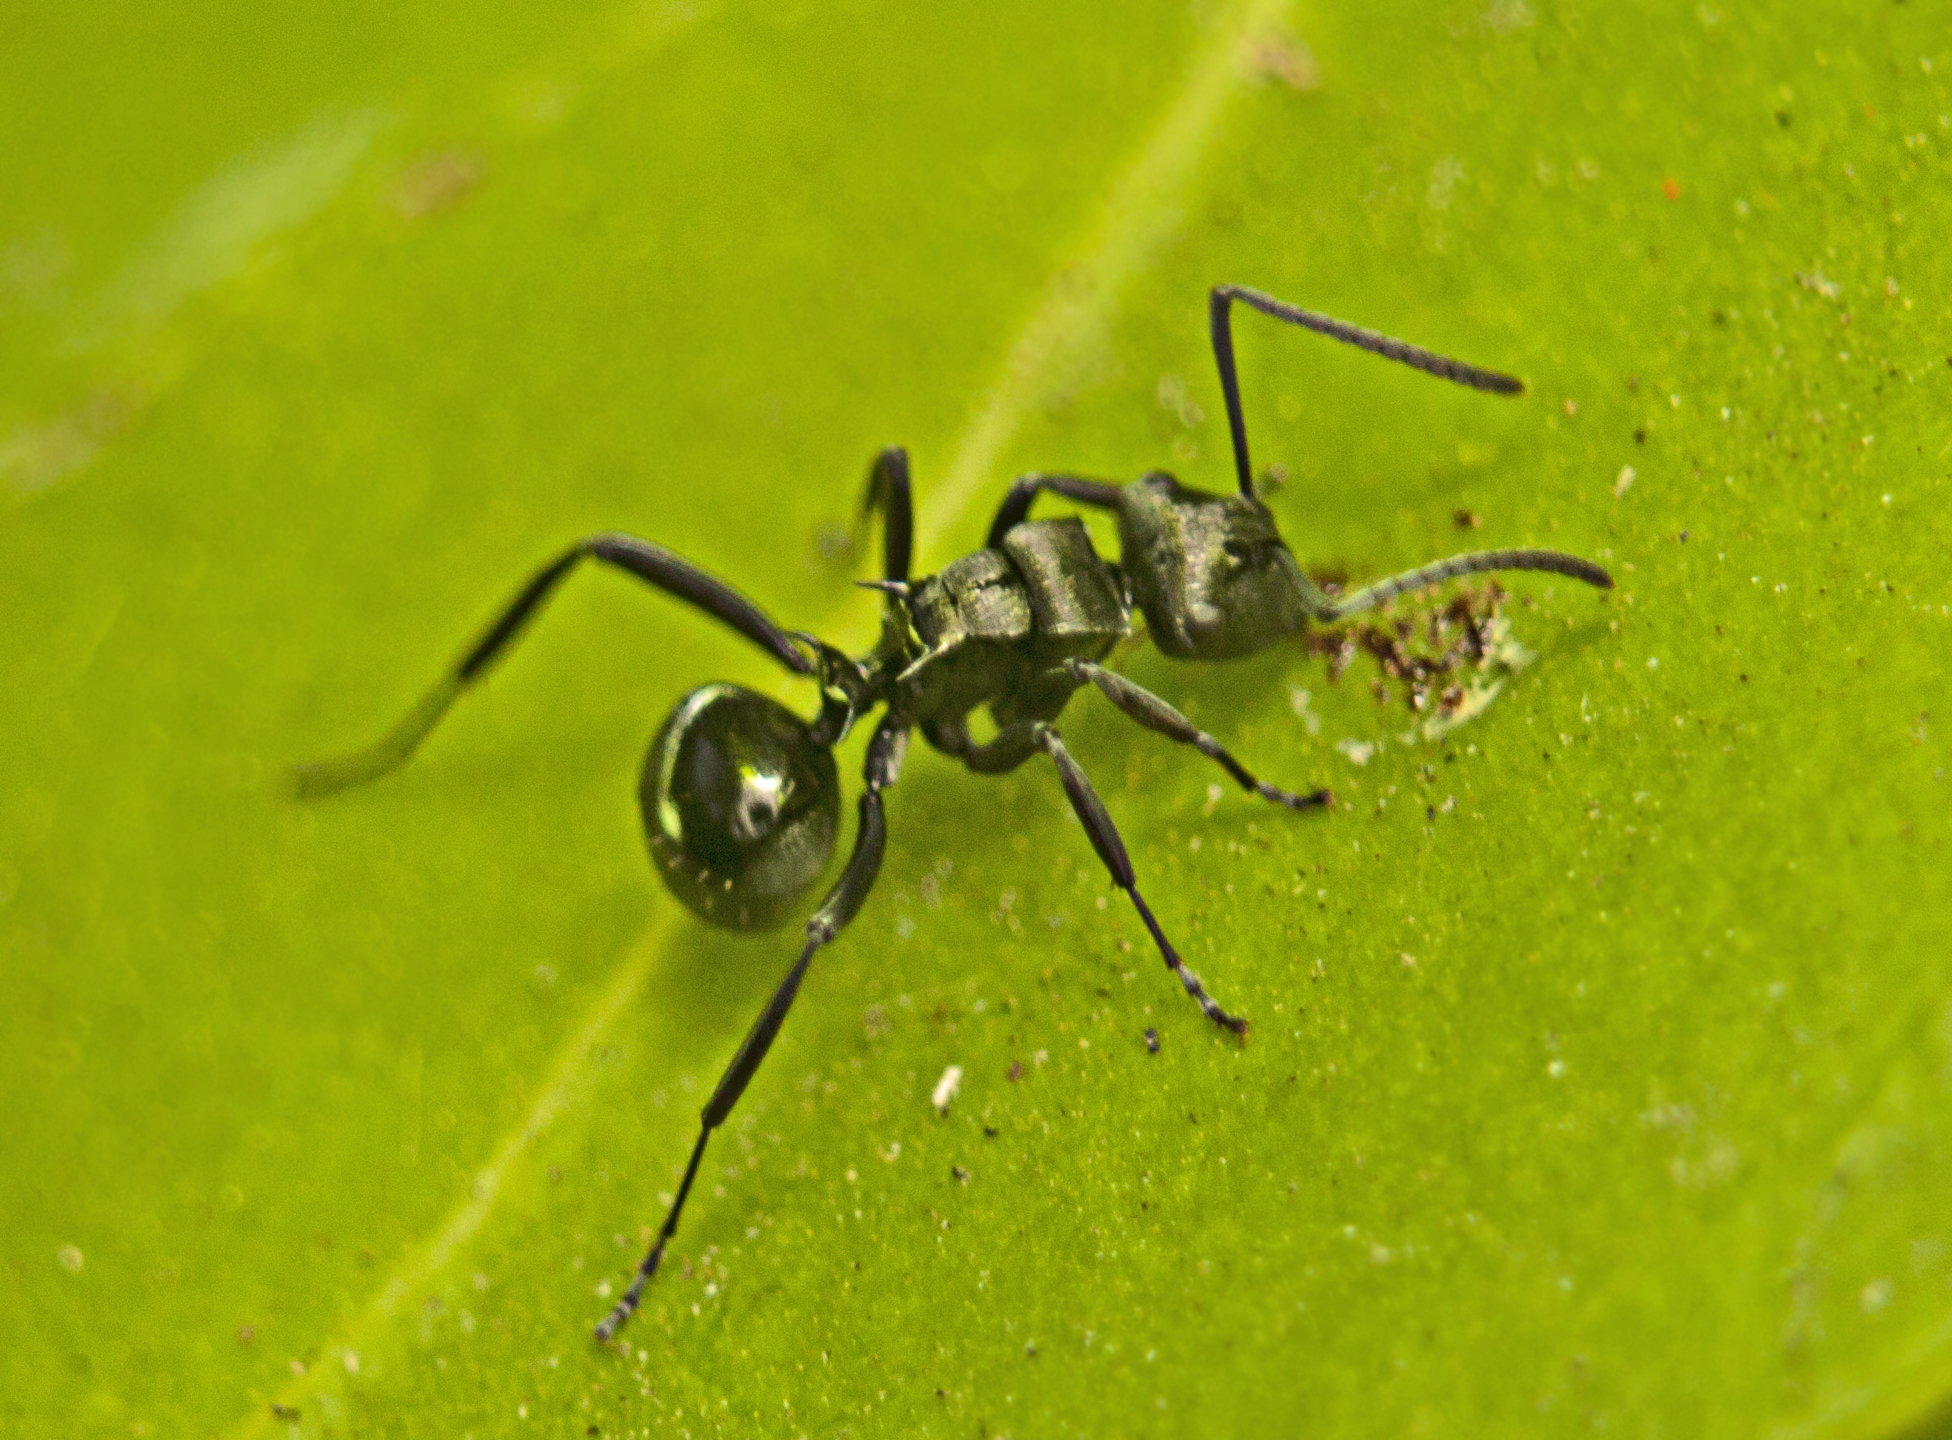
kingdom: Animalia
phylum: Arthropoda
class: Insecta
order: Hymenoptera
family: Formicidae
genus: Polyrhachis
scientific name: Polyrhachis clio
